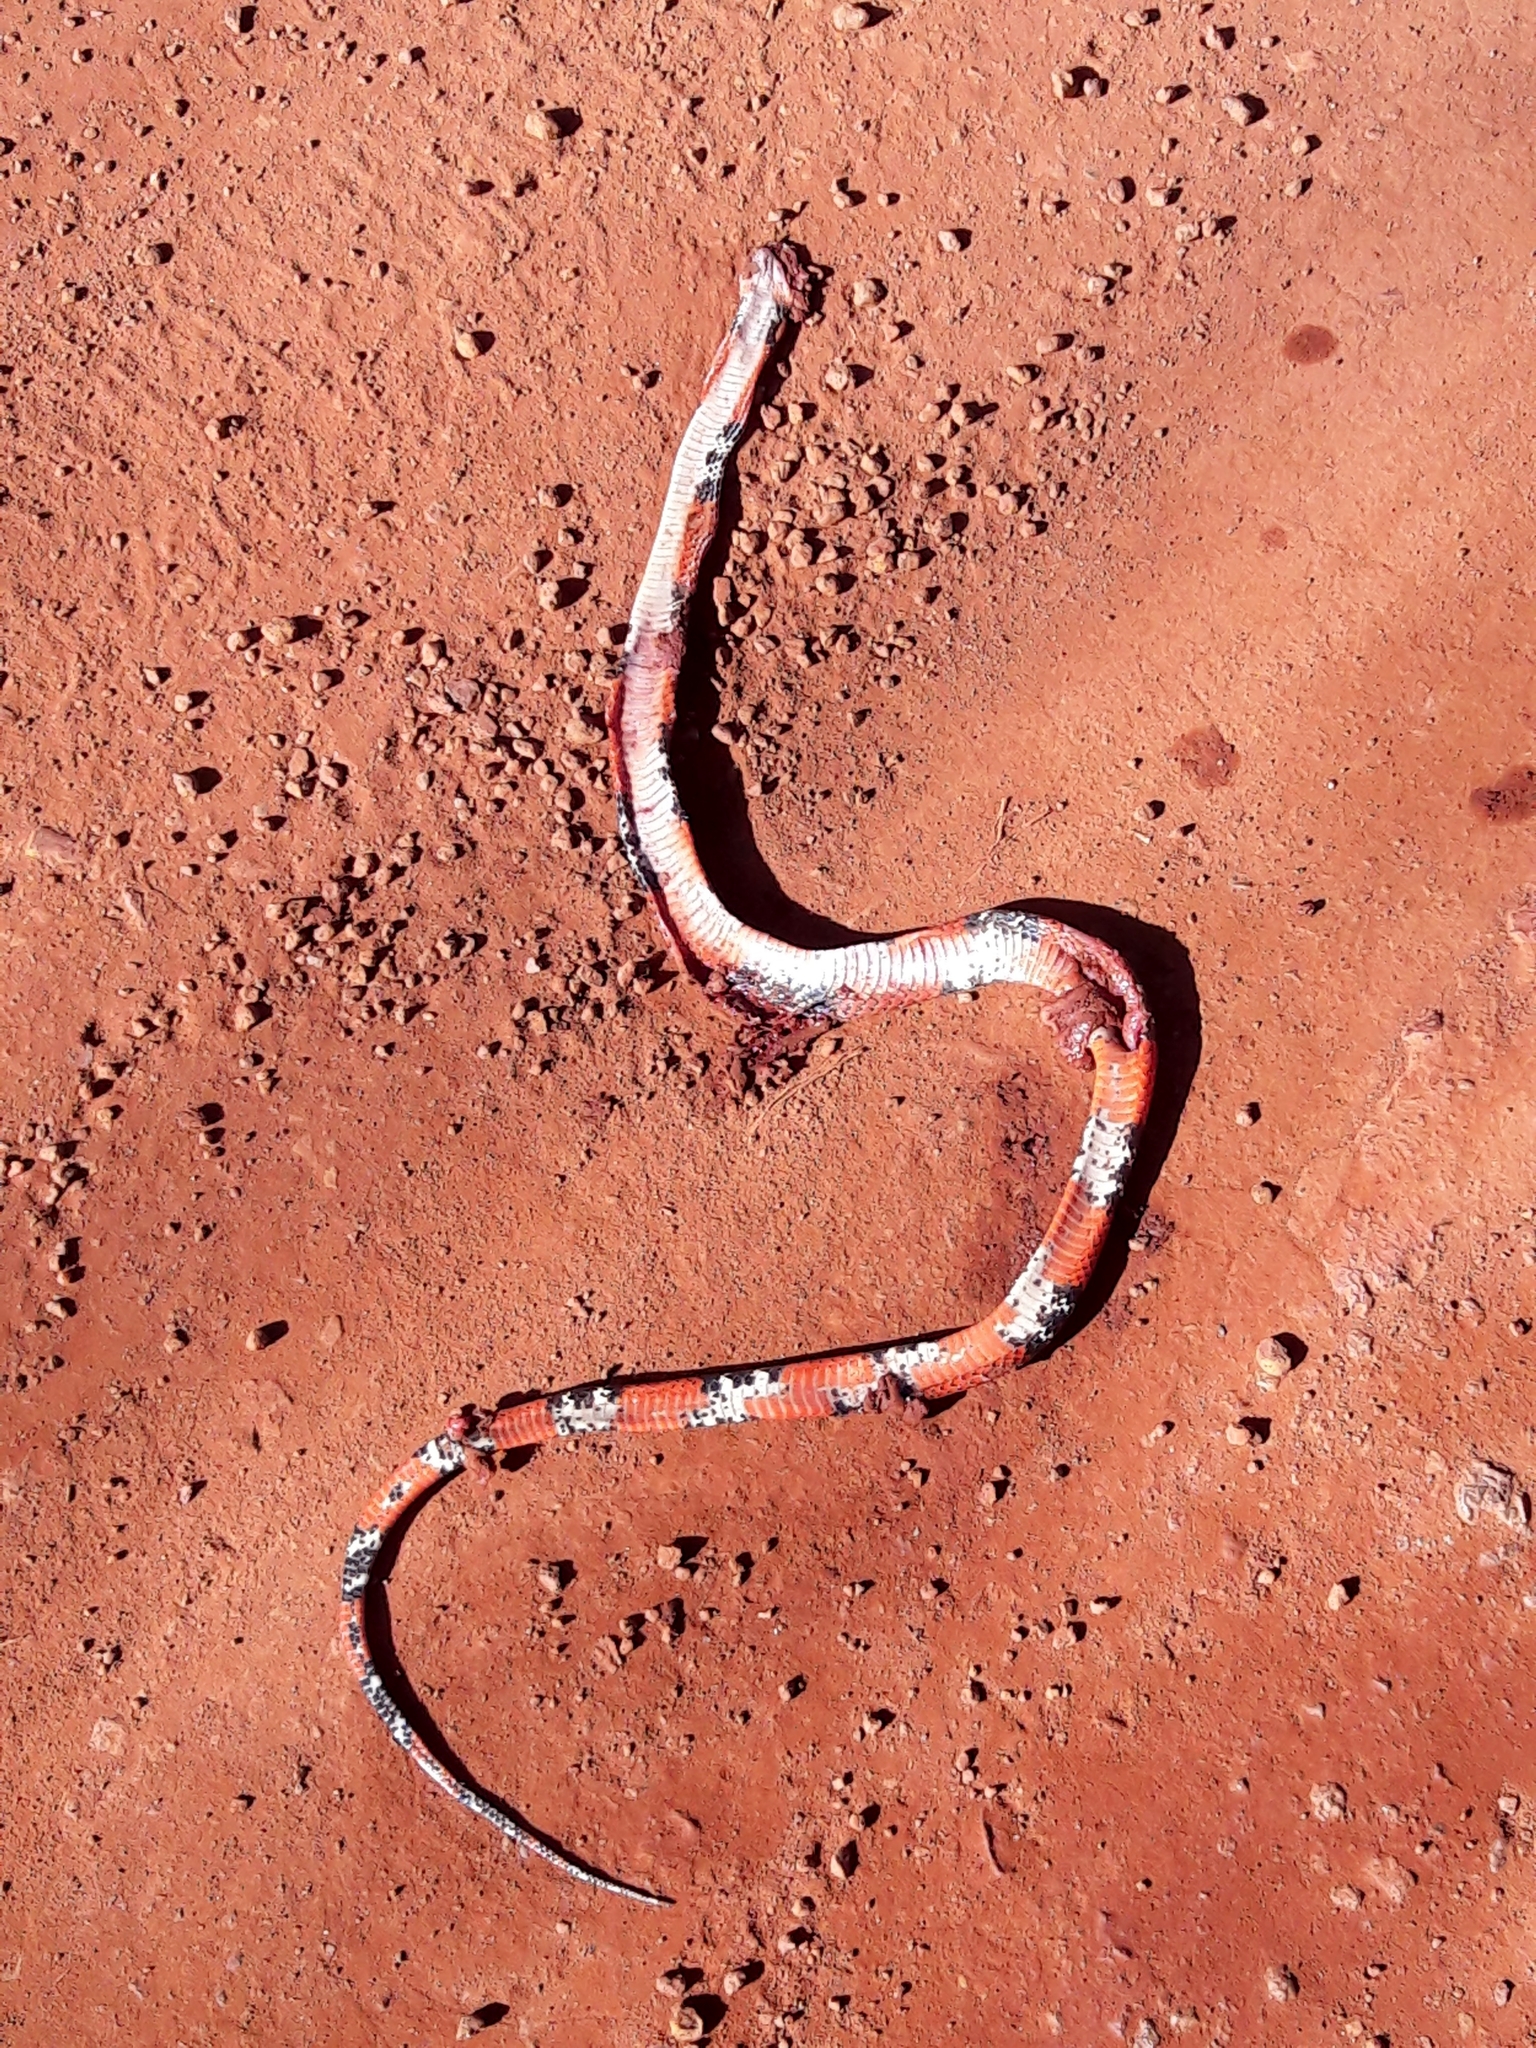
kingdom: Animalia
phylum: Chordata
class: Squamata
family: Colubridae
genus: Oxyrhopus
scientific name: Oxyrhopus guibei
